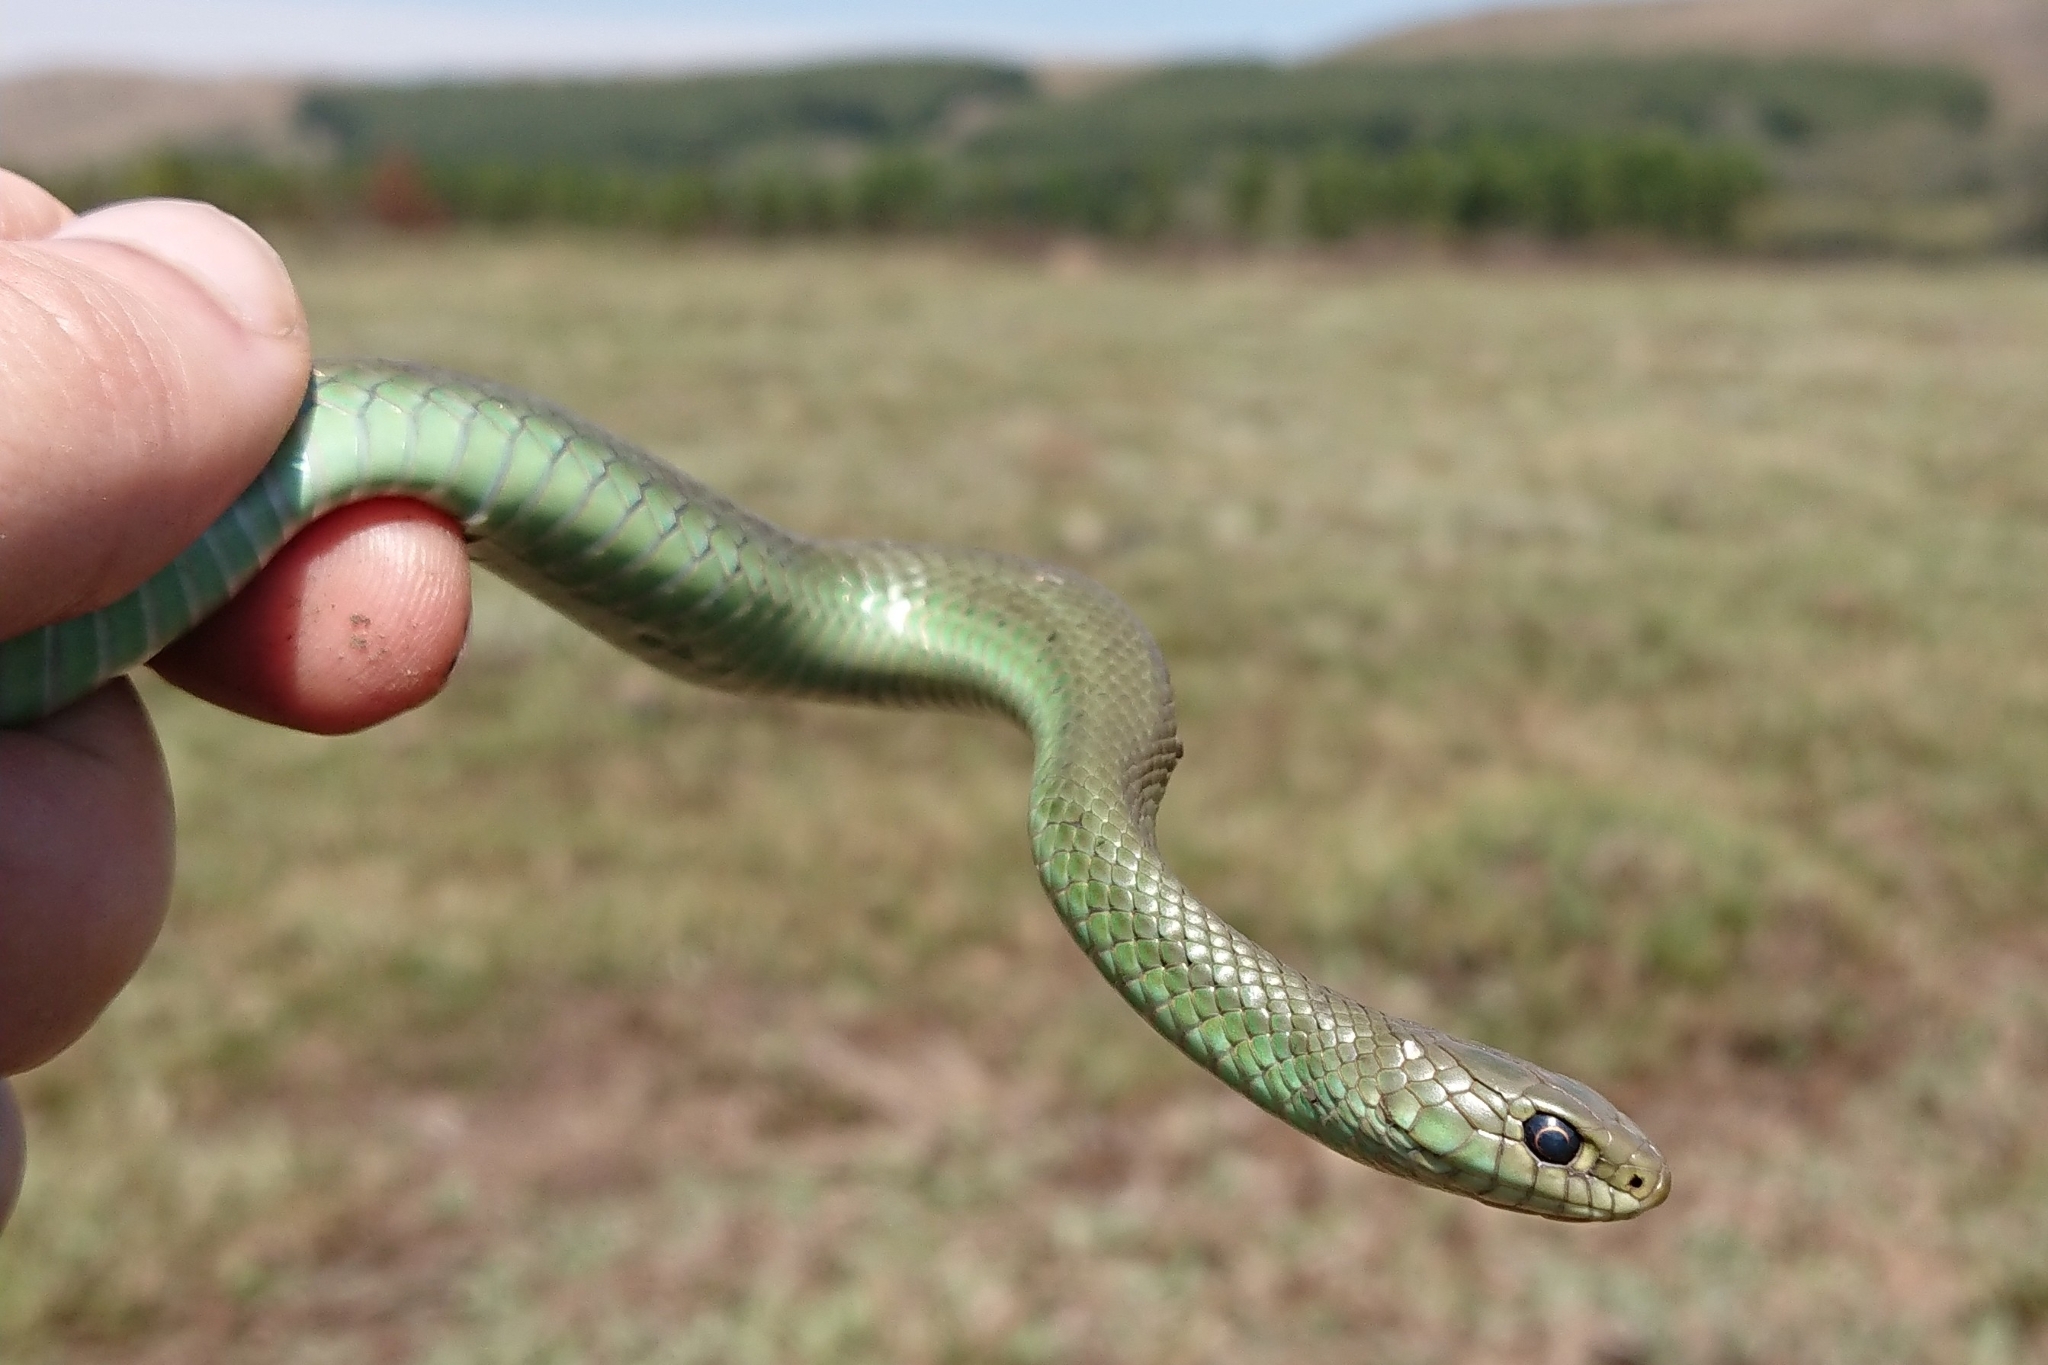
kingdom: Animalia
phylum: Chordata
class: Squamata
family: Pseudoxyrhophiidae
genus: Amplorhinus
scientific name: Amplorhinus multimaculatus
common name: Many-spotted snake
